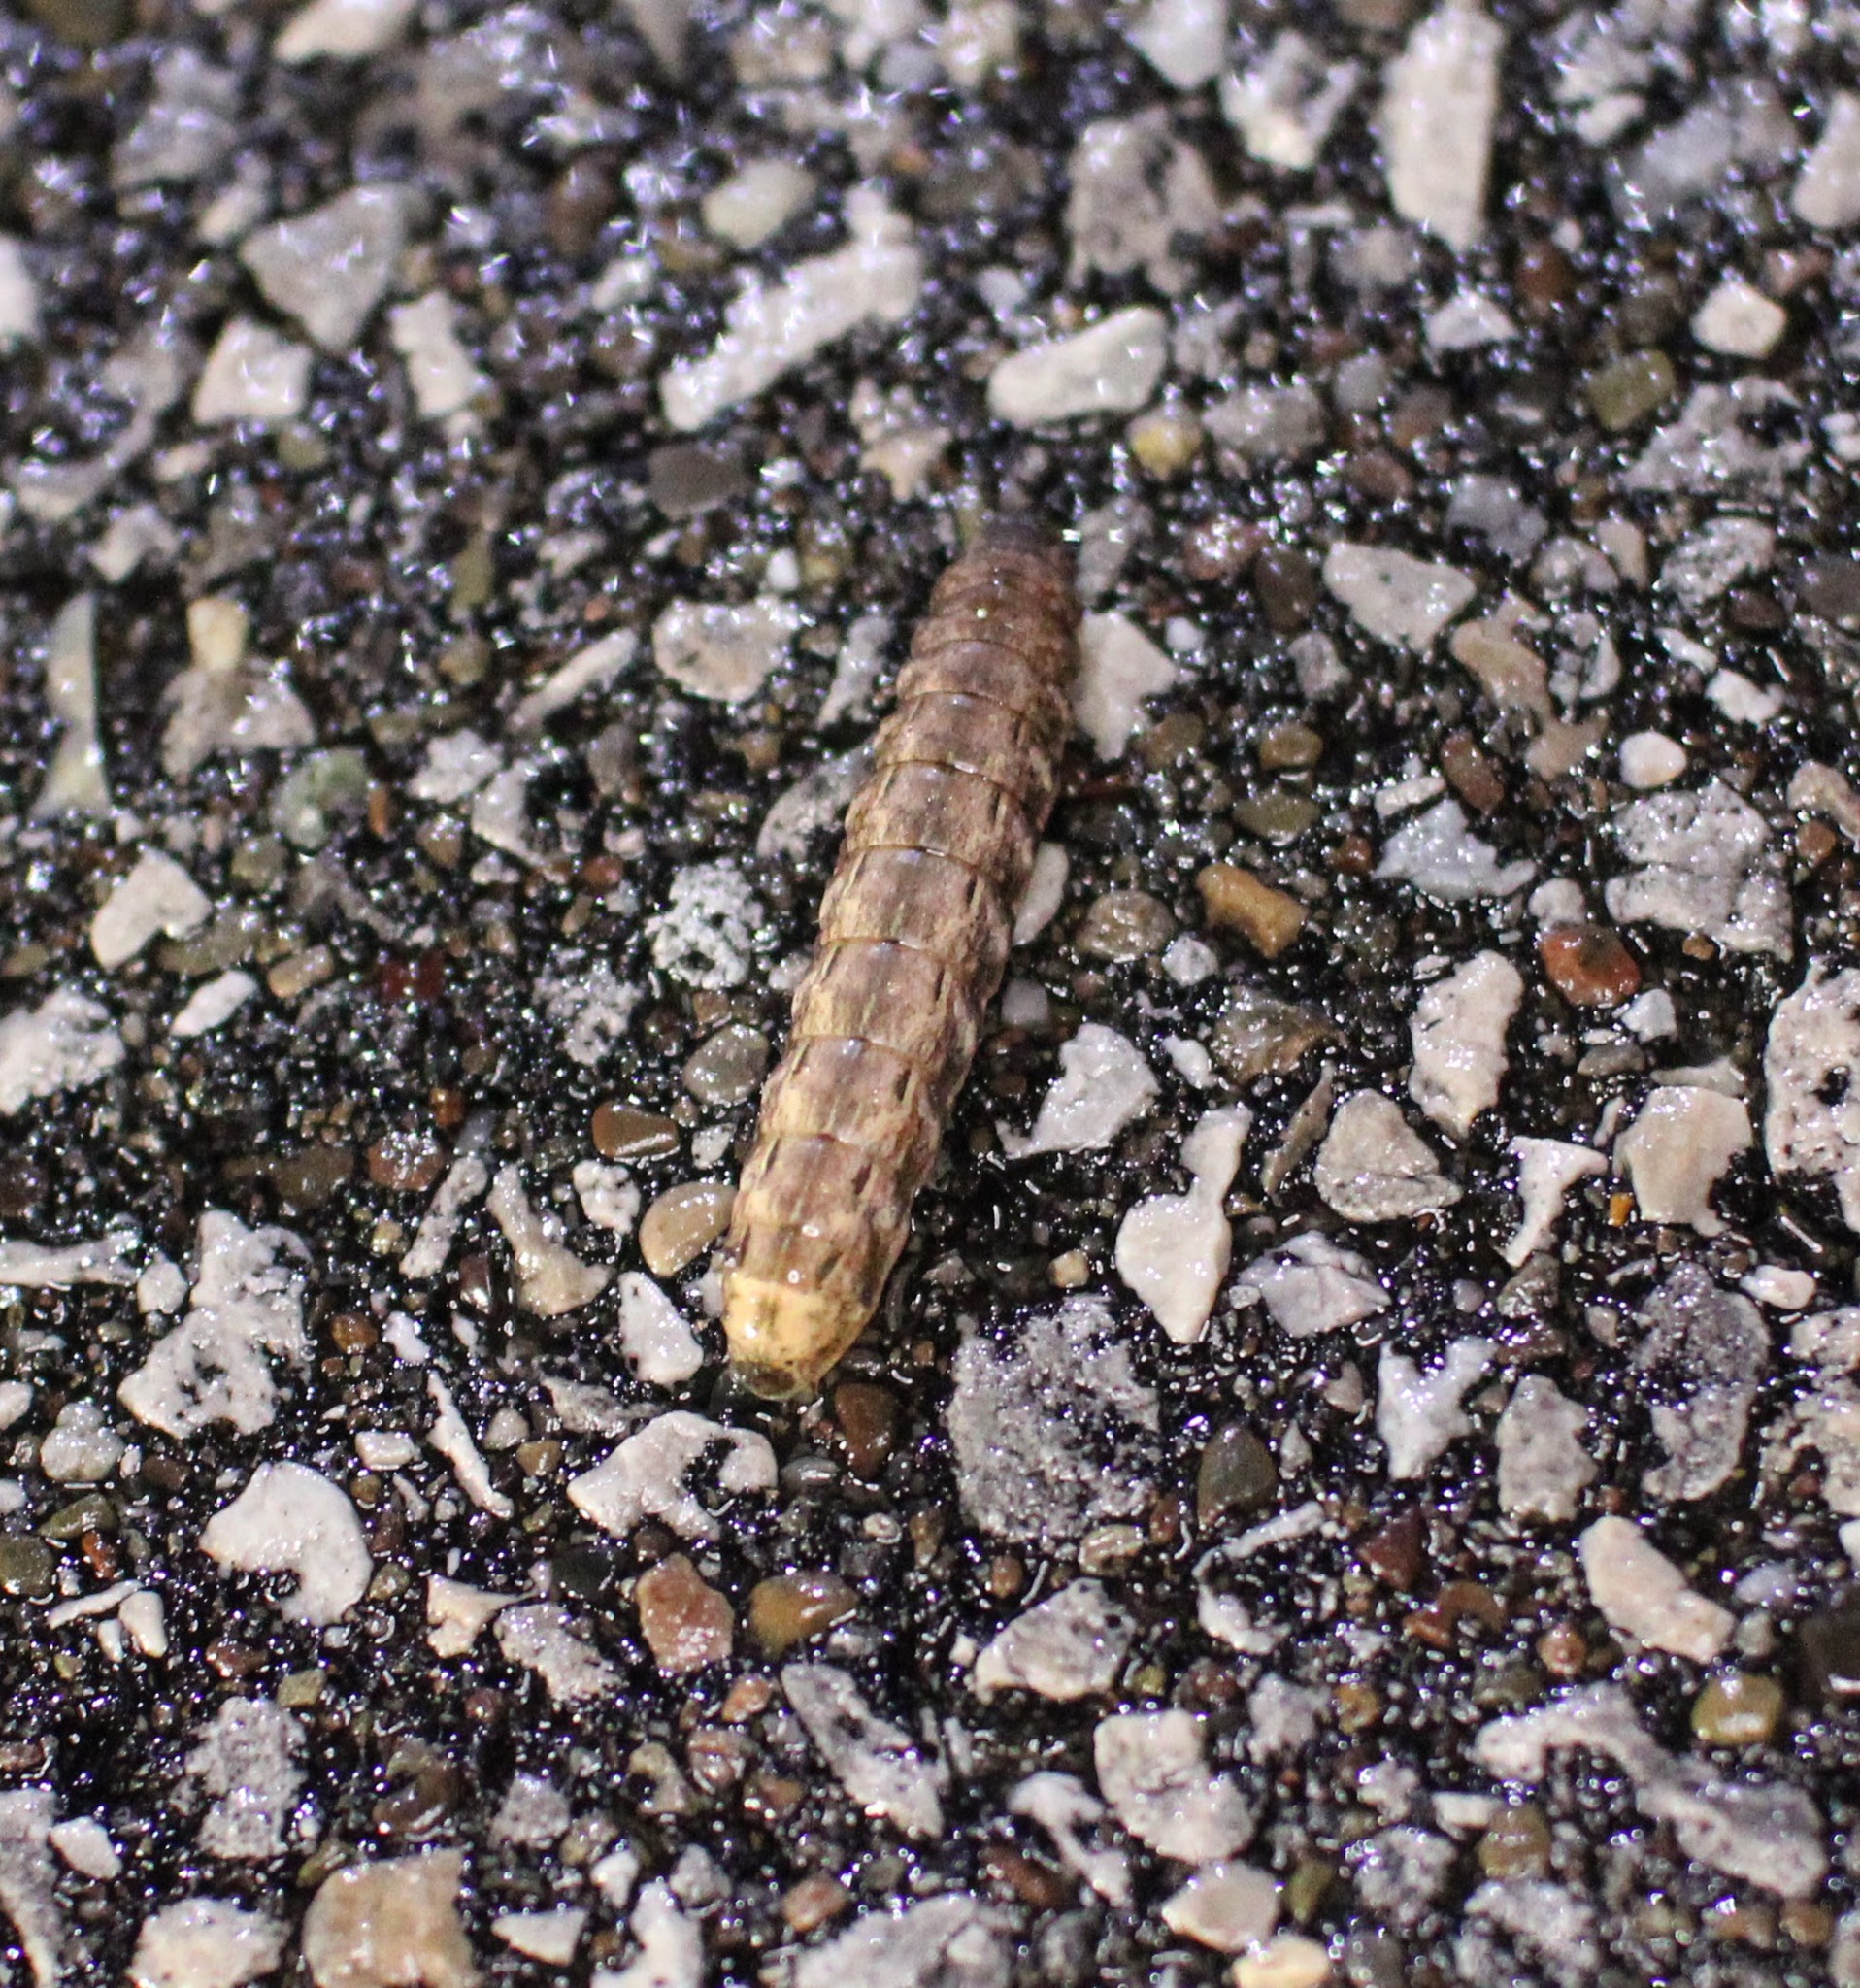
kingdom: Animalia
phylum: Arthropoda
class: Insecta
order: Lepidoptera
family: Noctuidae
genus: Noctua
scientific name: Noctua pronuba
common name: Large yellow underwing
